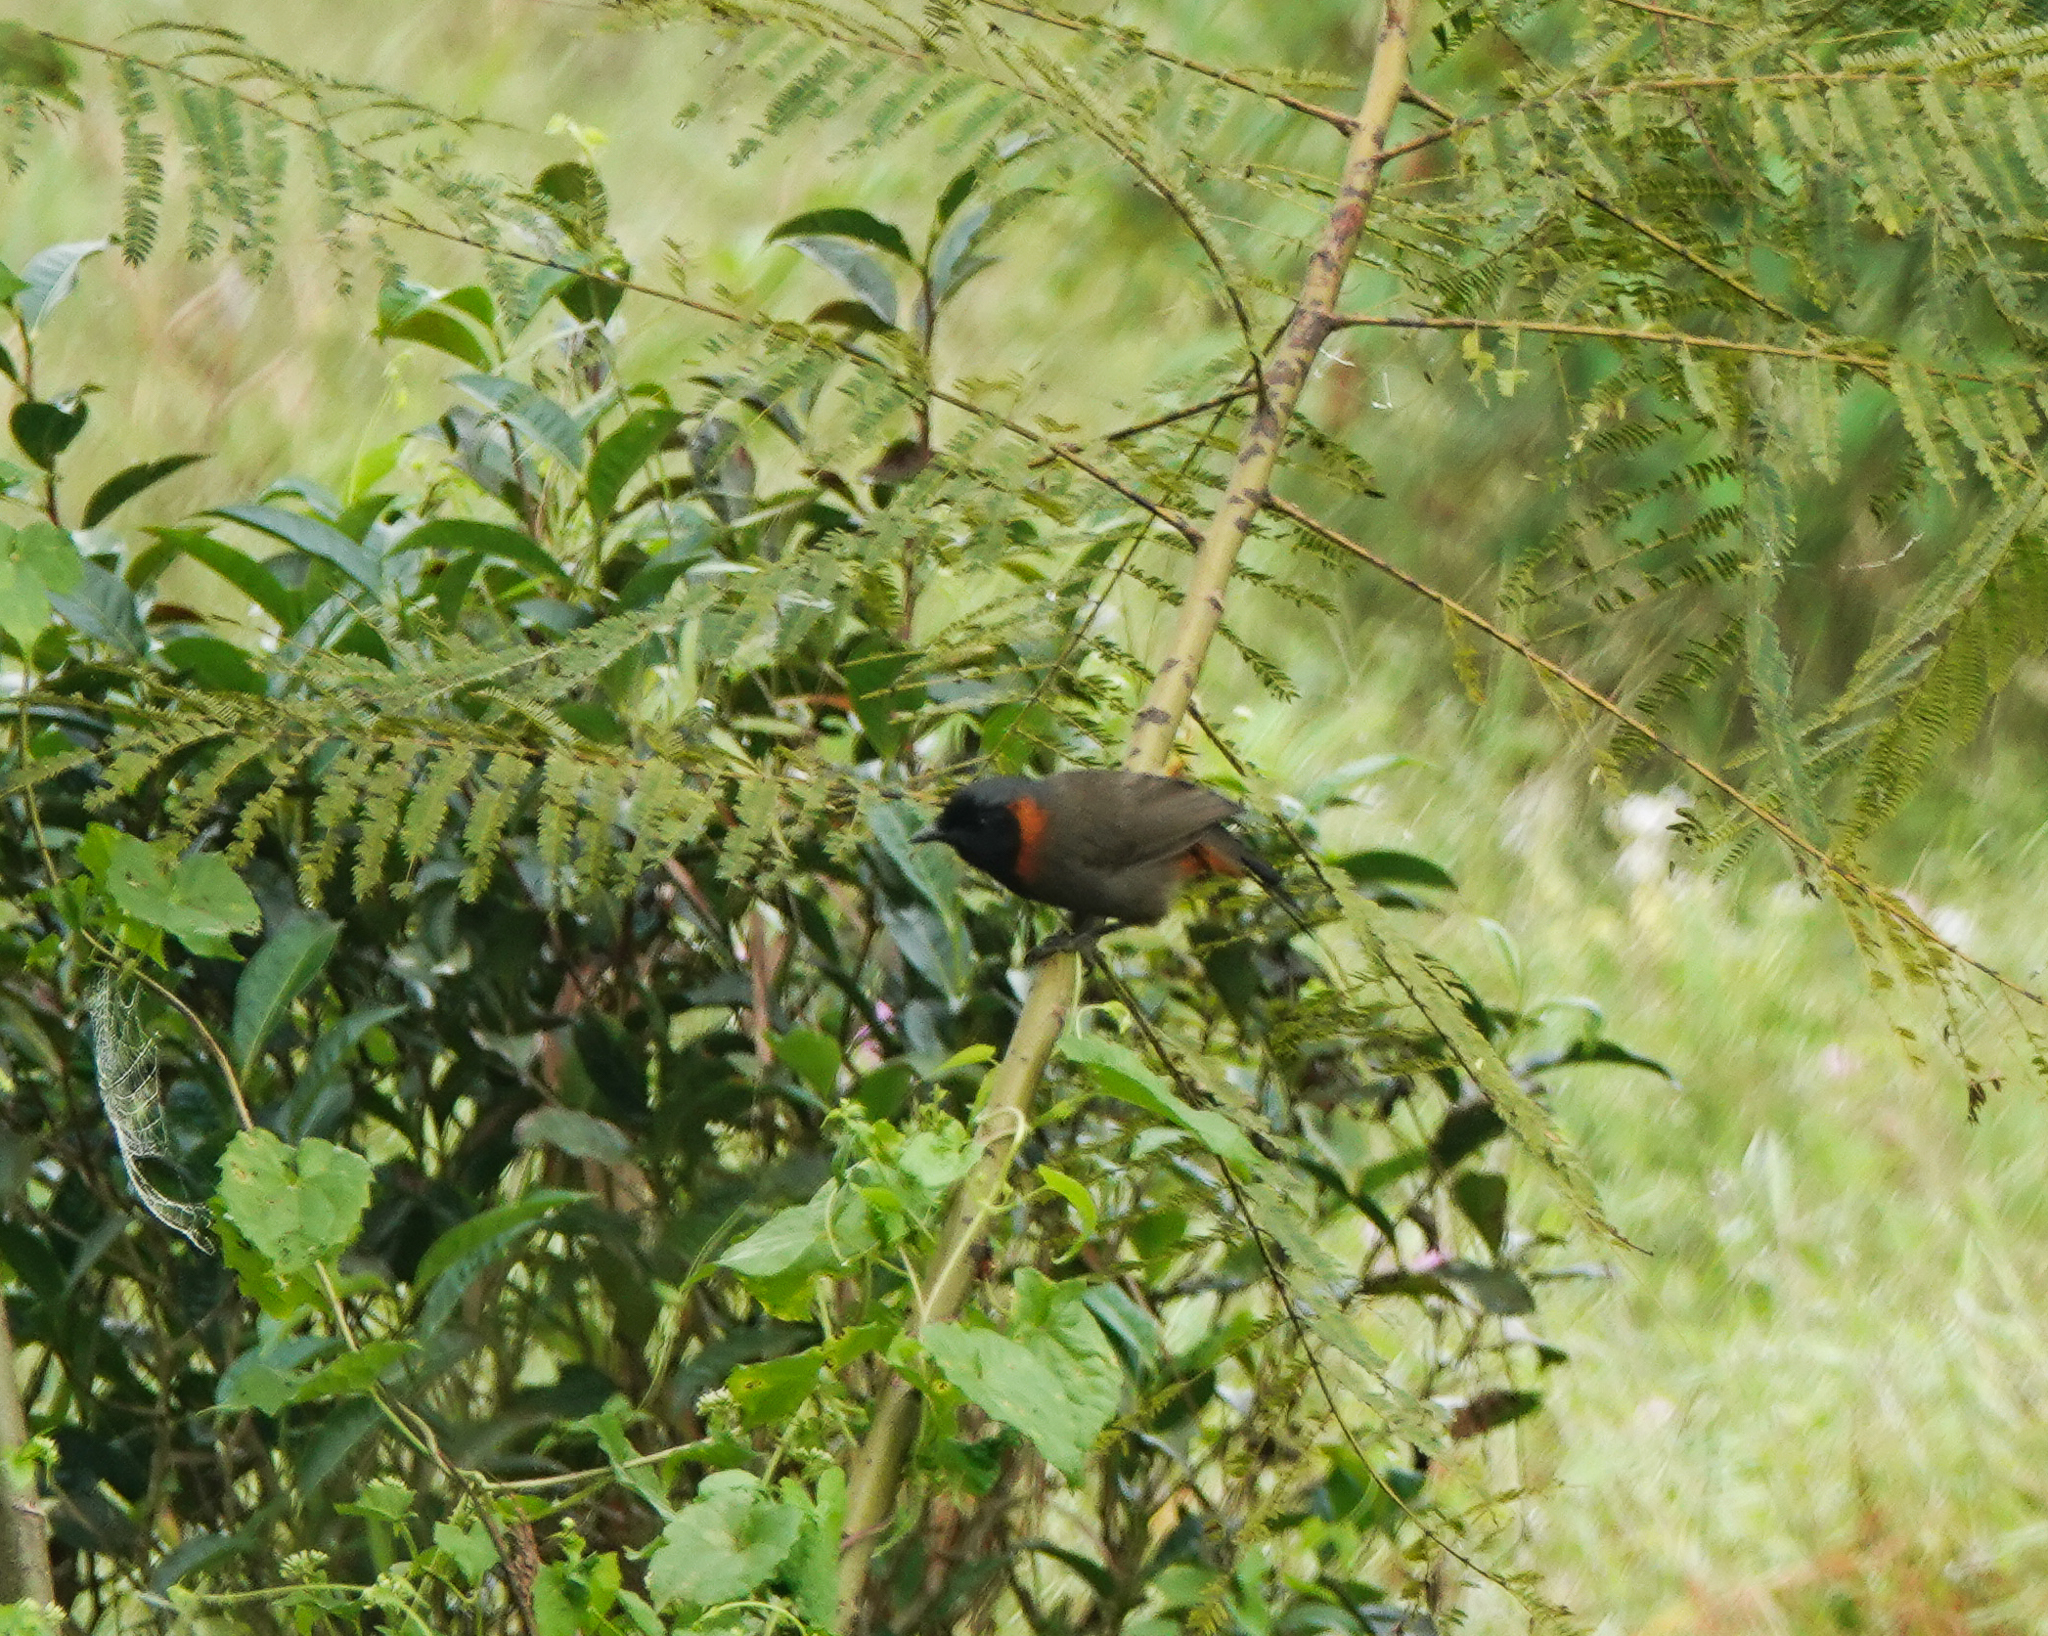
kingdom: Animalia
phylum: Chordata
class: Aves
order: Passeriformes
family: Leiothrichidae
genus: Garrulax
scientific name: Garrulax ruficollis
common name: Rufous-necked laughingthrush
